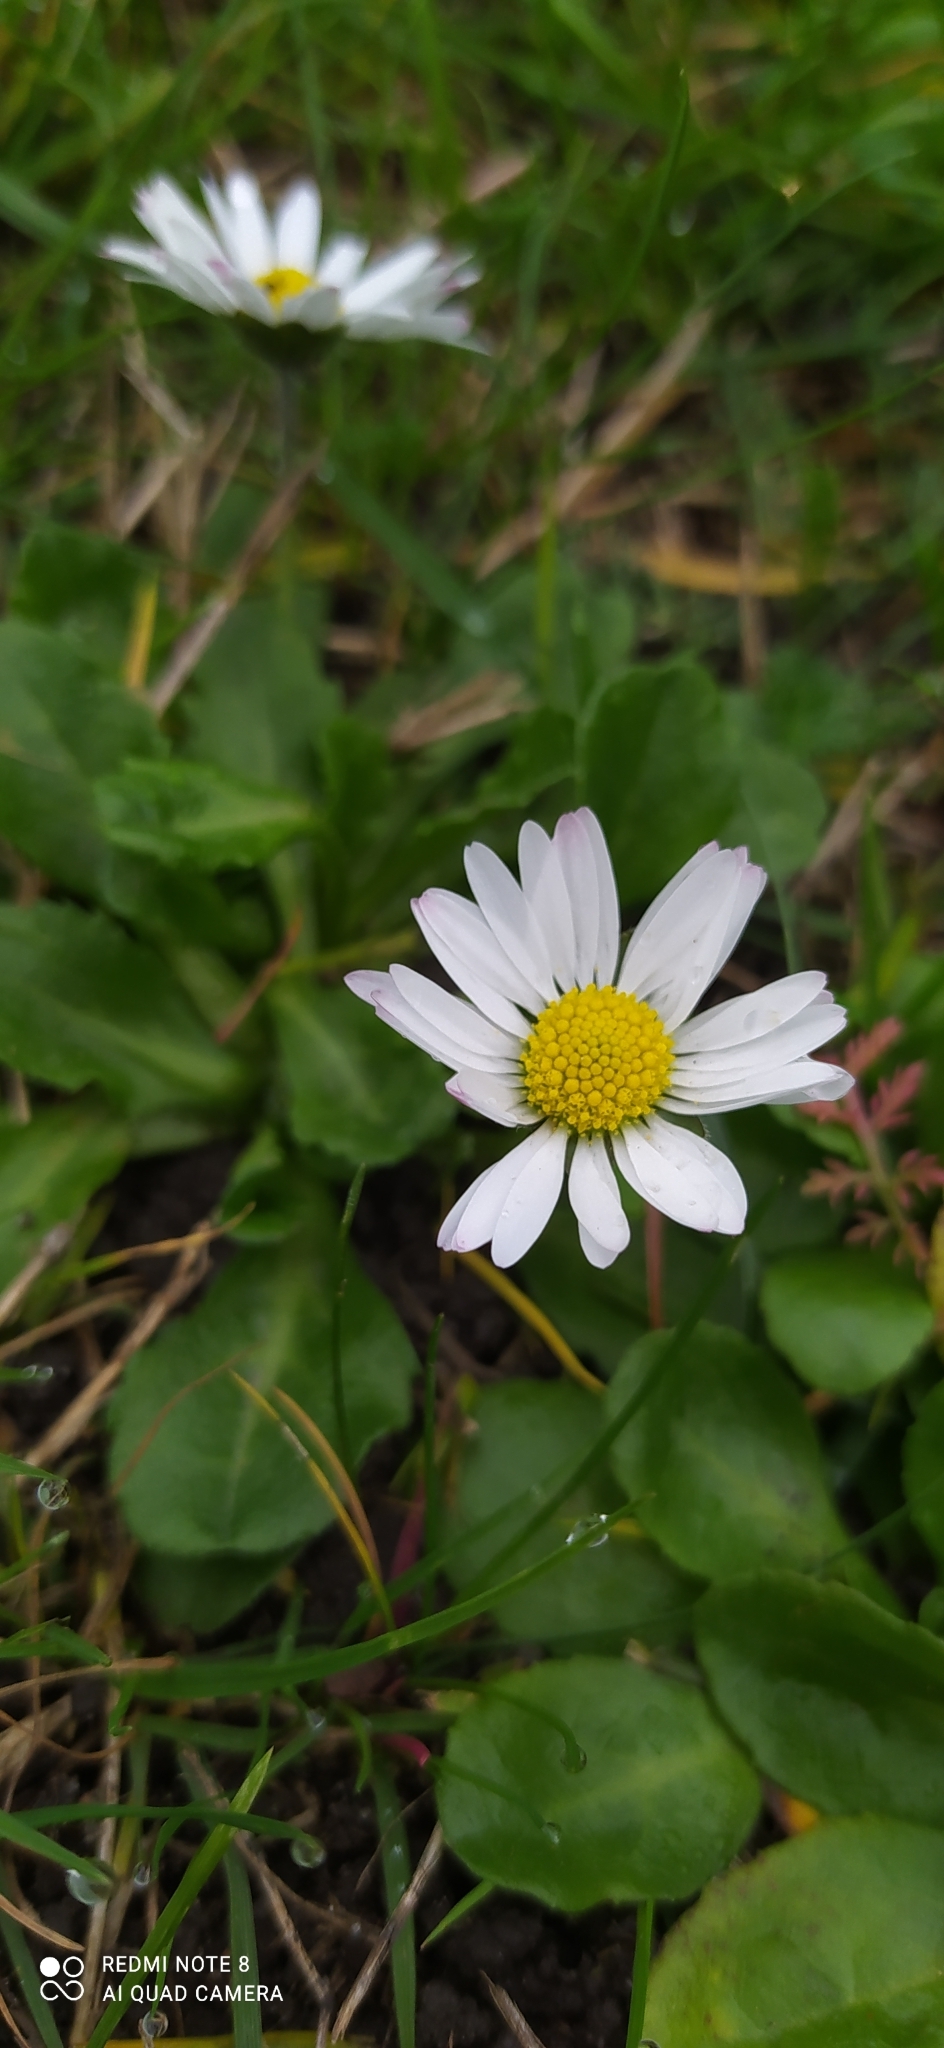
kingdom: Plantae
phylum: Tracheophyta
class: Magnoliopsida
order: Asterales
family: Asteraceae
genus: Bellis
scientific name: Bellis perennis
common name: Lawndaisy
